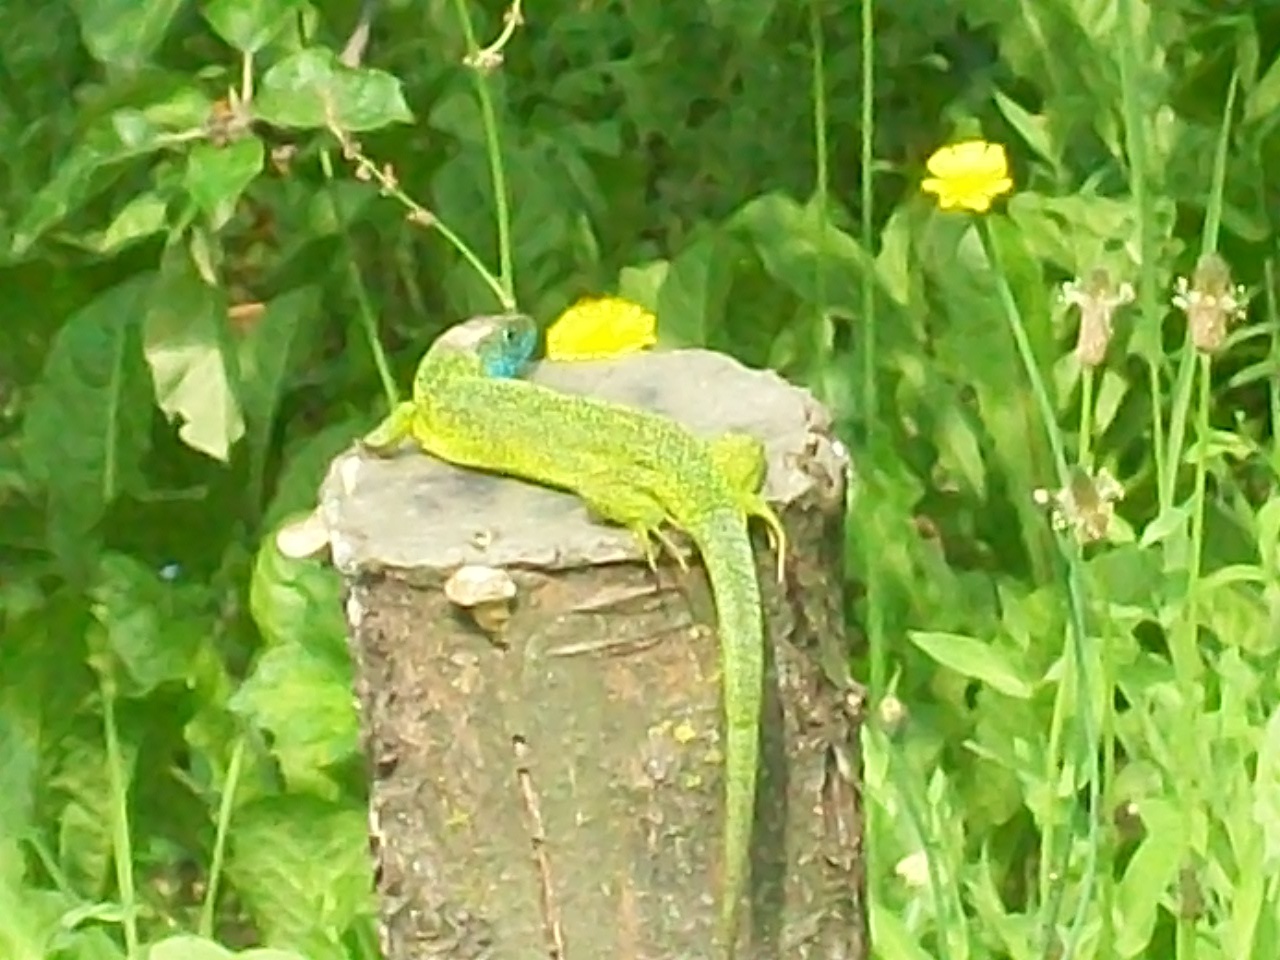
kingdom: Animalia
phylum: Chordata
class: Squamata
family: Lacertidae
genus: Lacerta
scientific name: Lacerta bilineata
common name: Western green lizard
